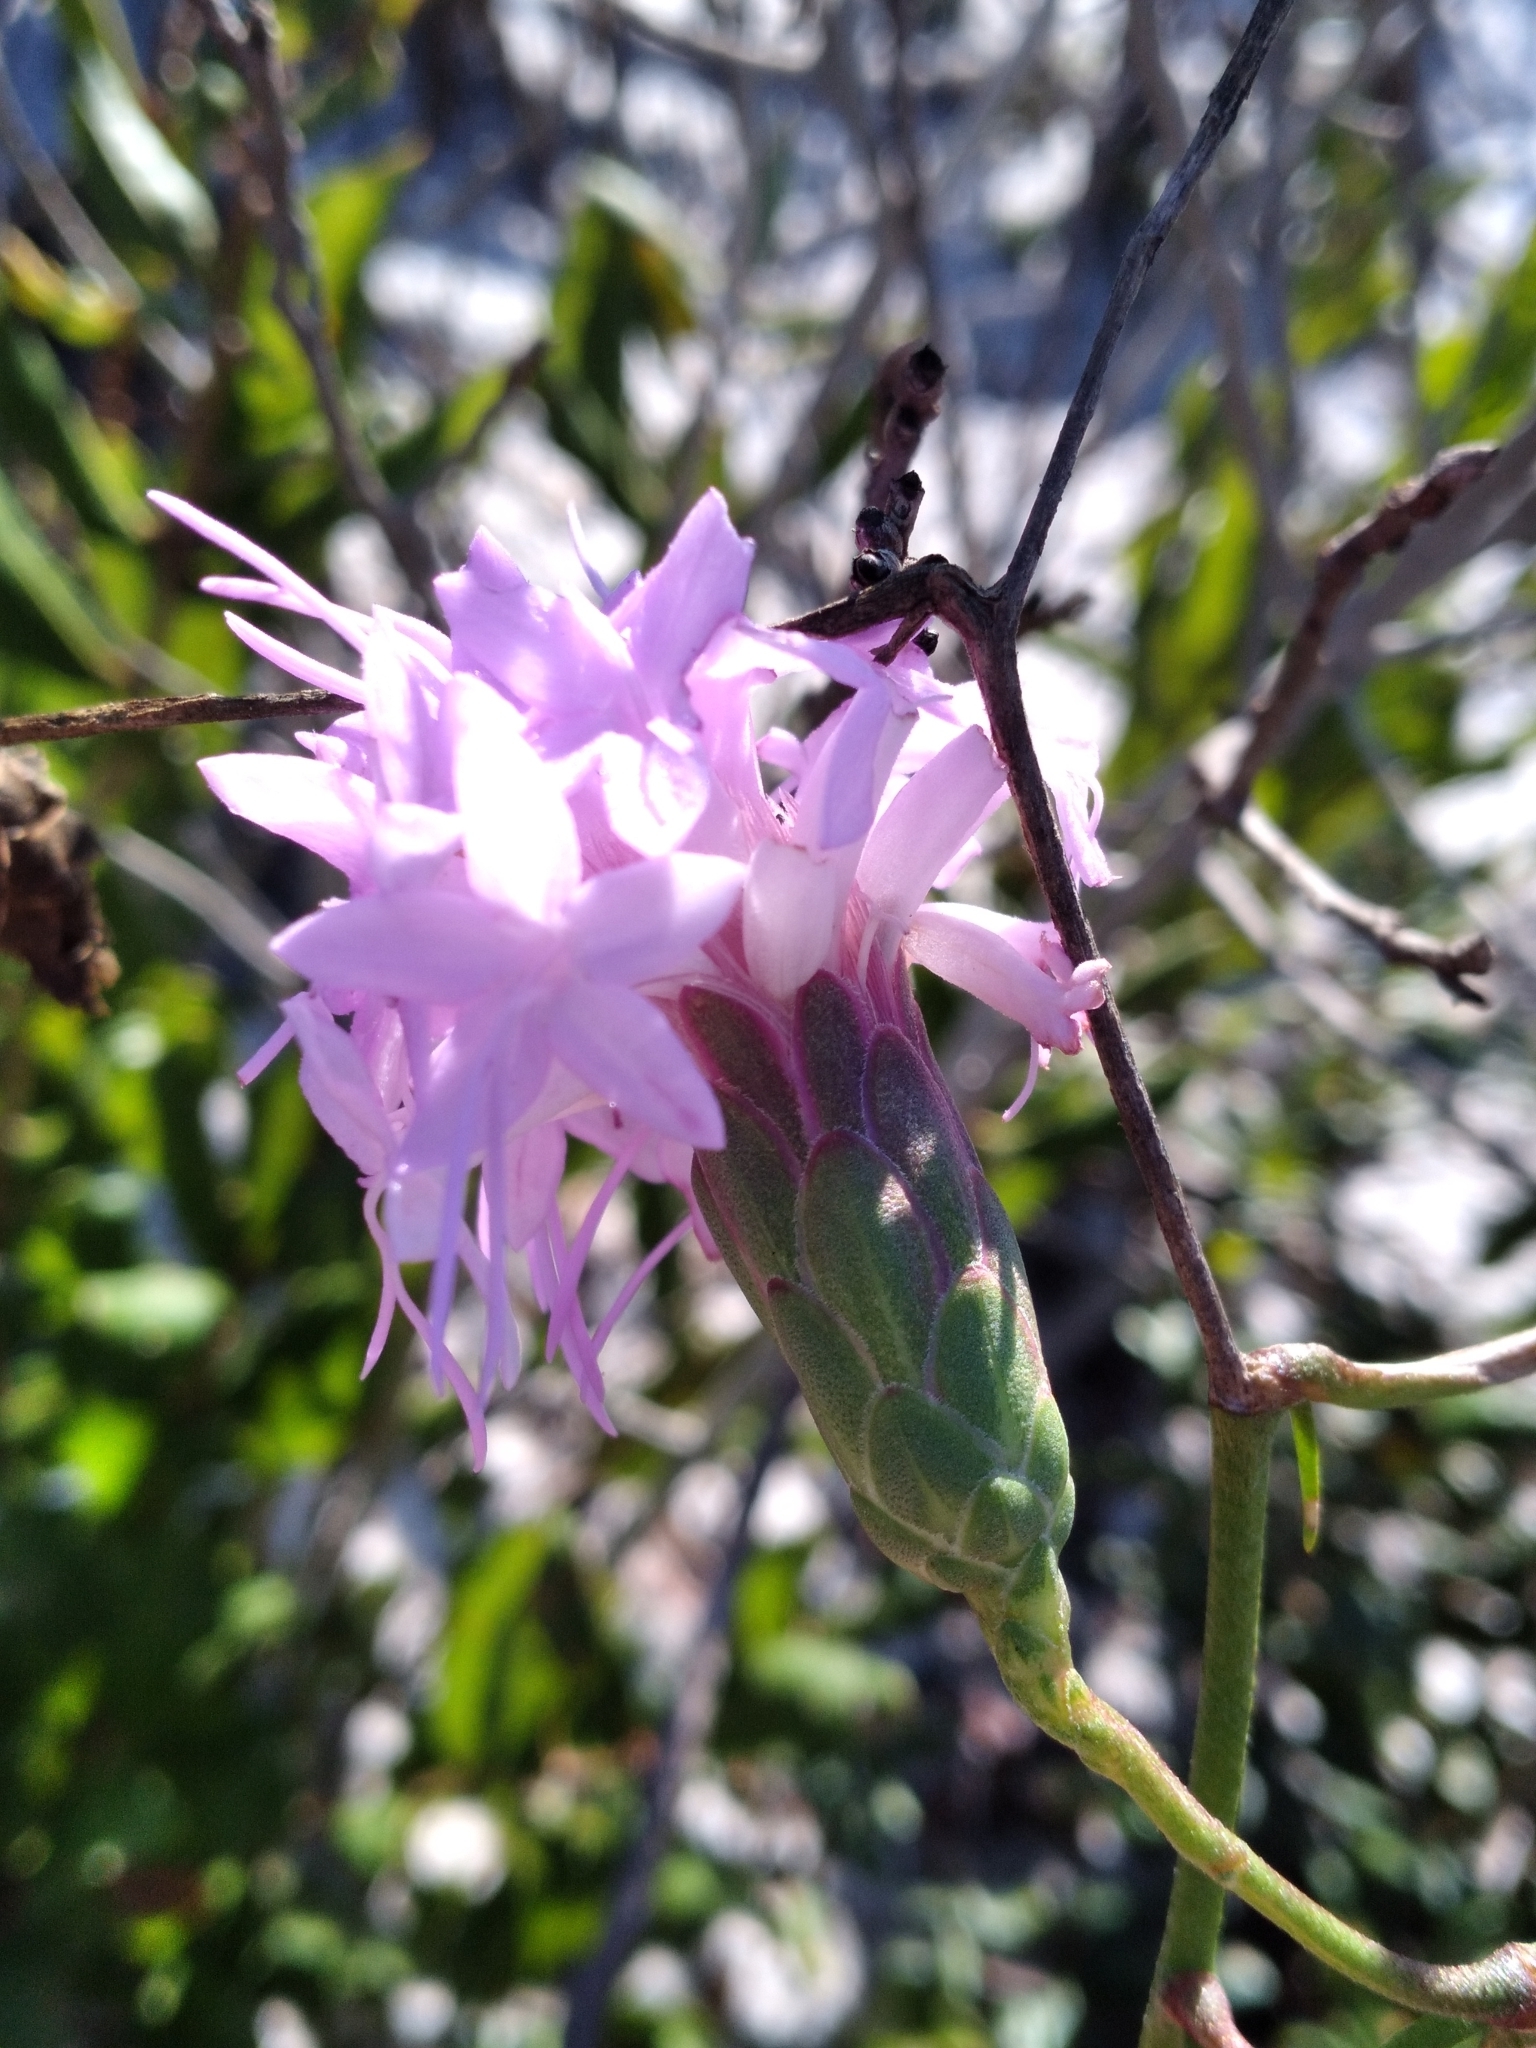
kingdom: Plantae
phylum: Tracheophyta
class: Magnoliopsida
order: Asterales
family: Asteraceae
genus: Liatris
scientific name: Liatris ohlingerae
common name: Scrub blazingstar
